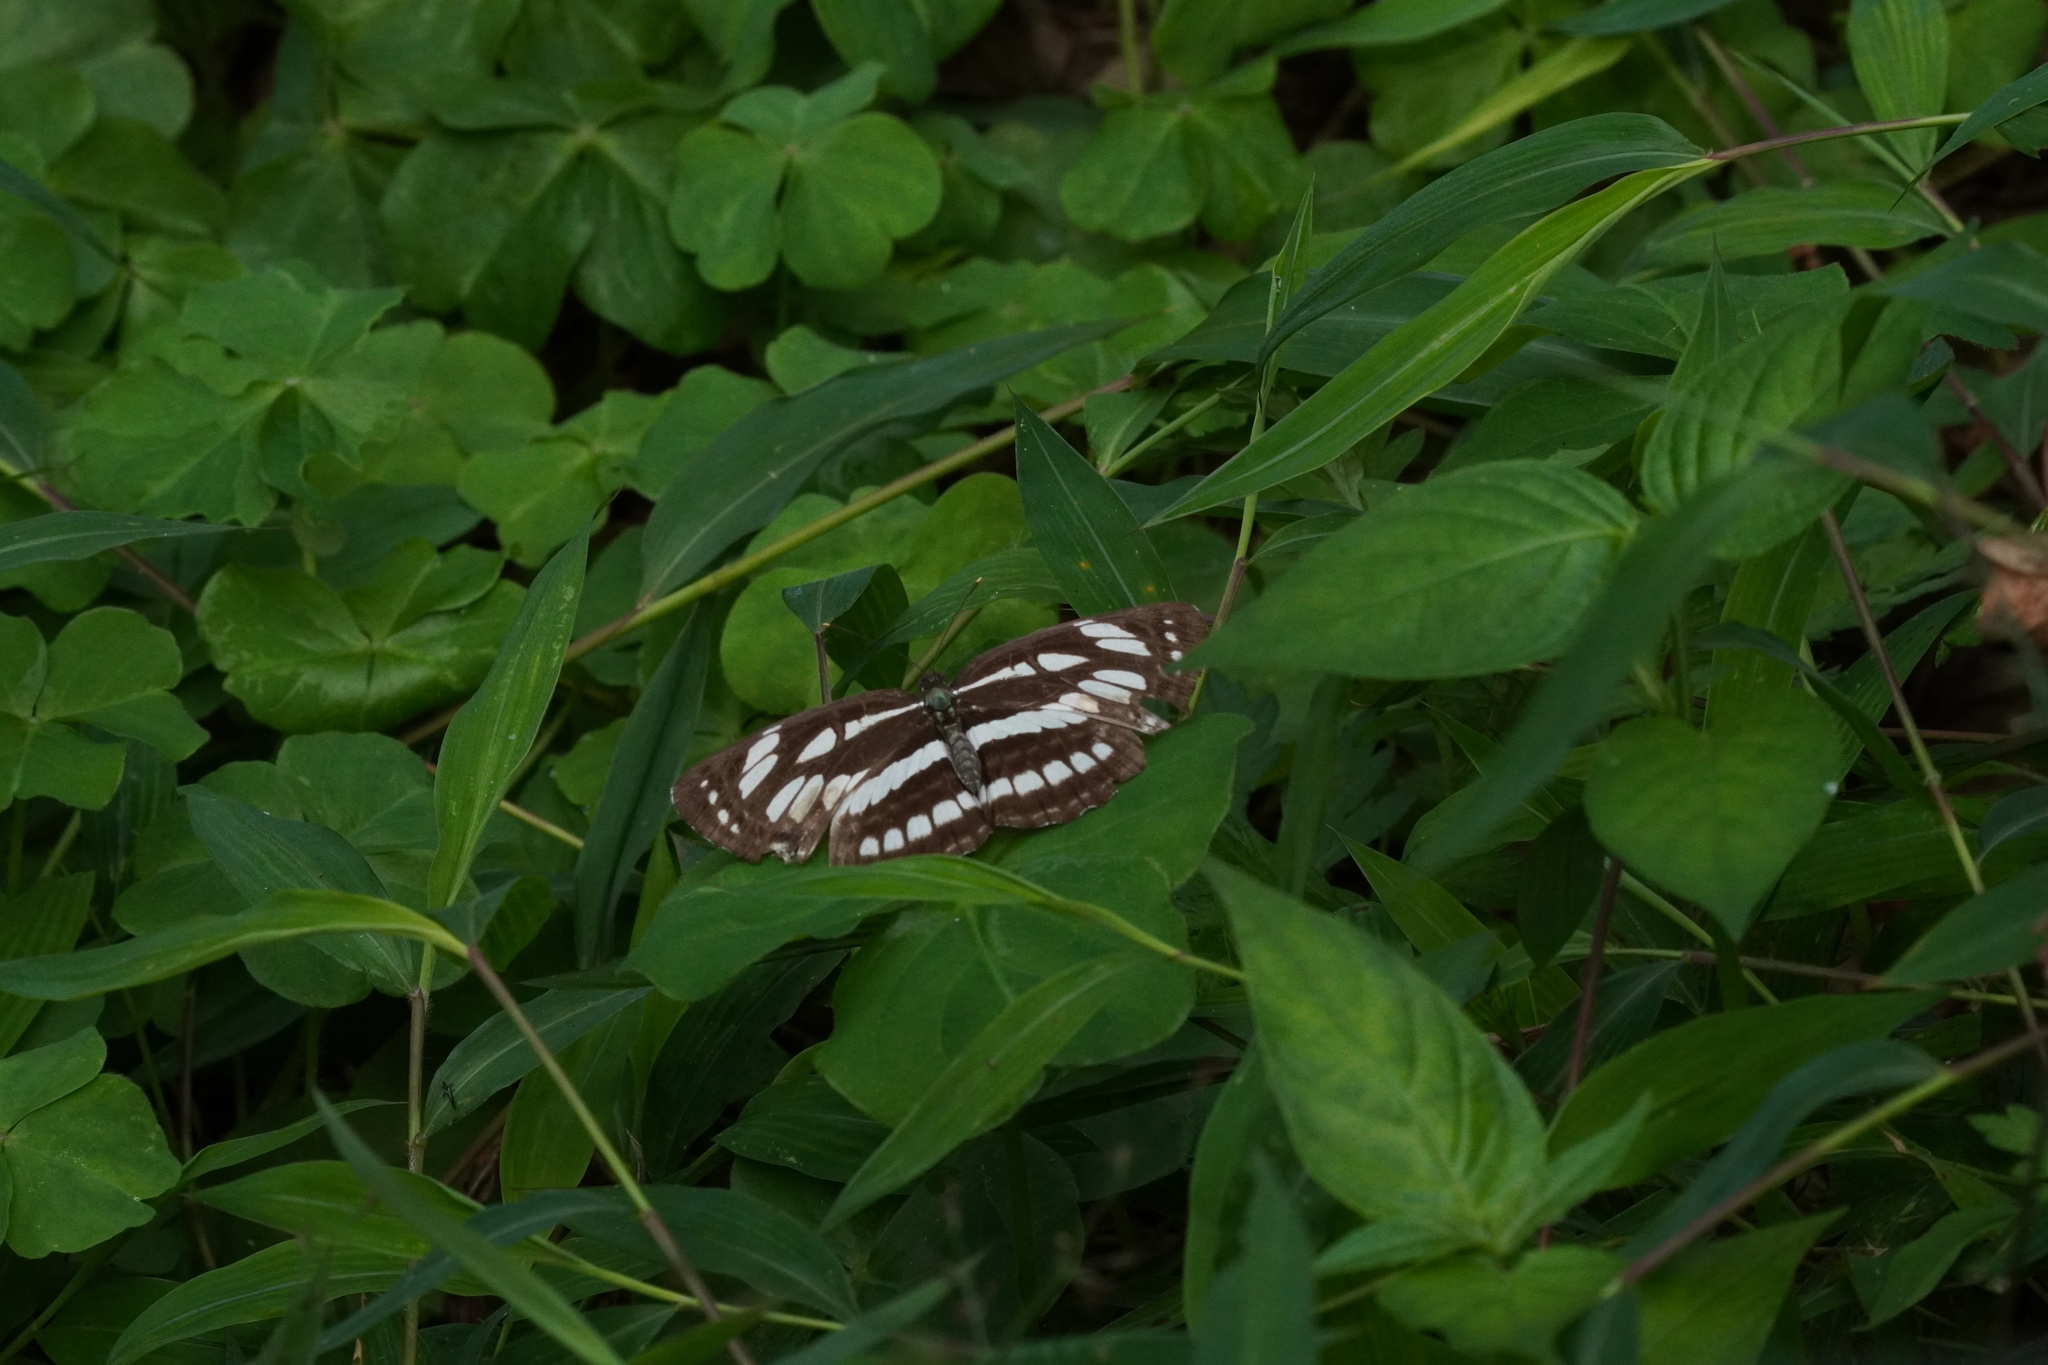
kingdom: Animalia
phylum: Arthropoda
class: Insecta
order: Lepidoptera
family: Nymphalidae
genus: Neptis
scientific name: Neptis hylas
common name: Common sailer
